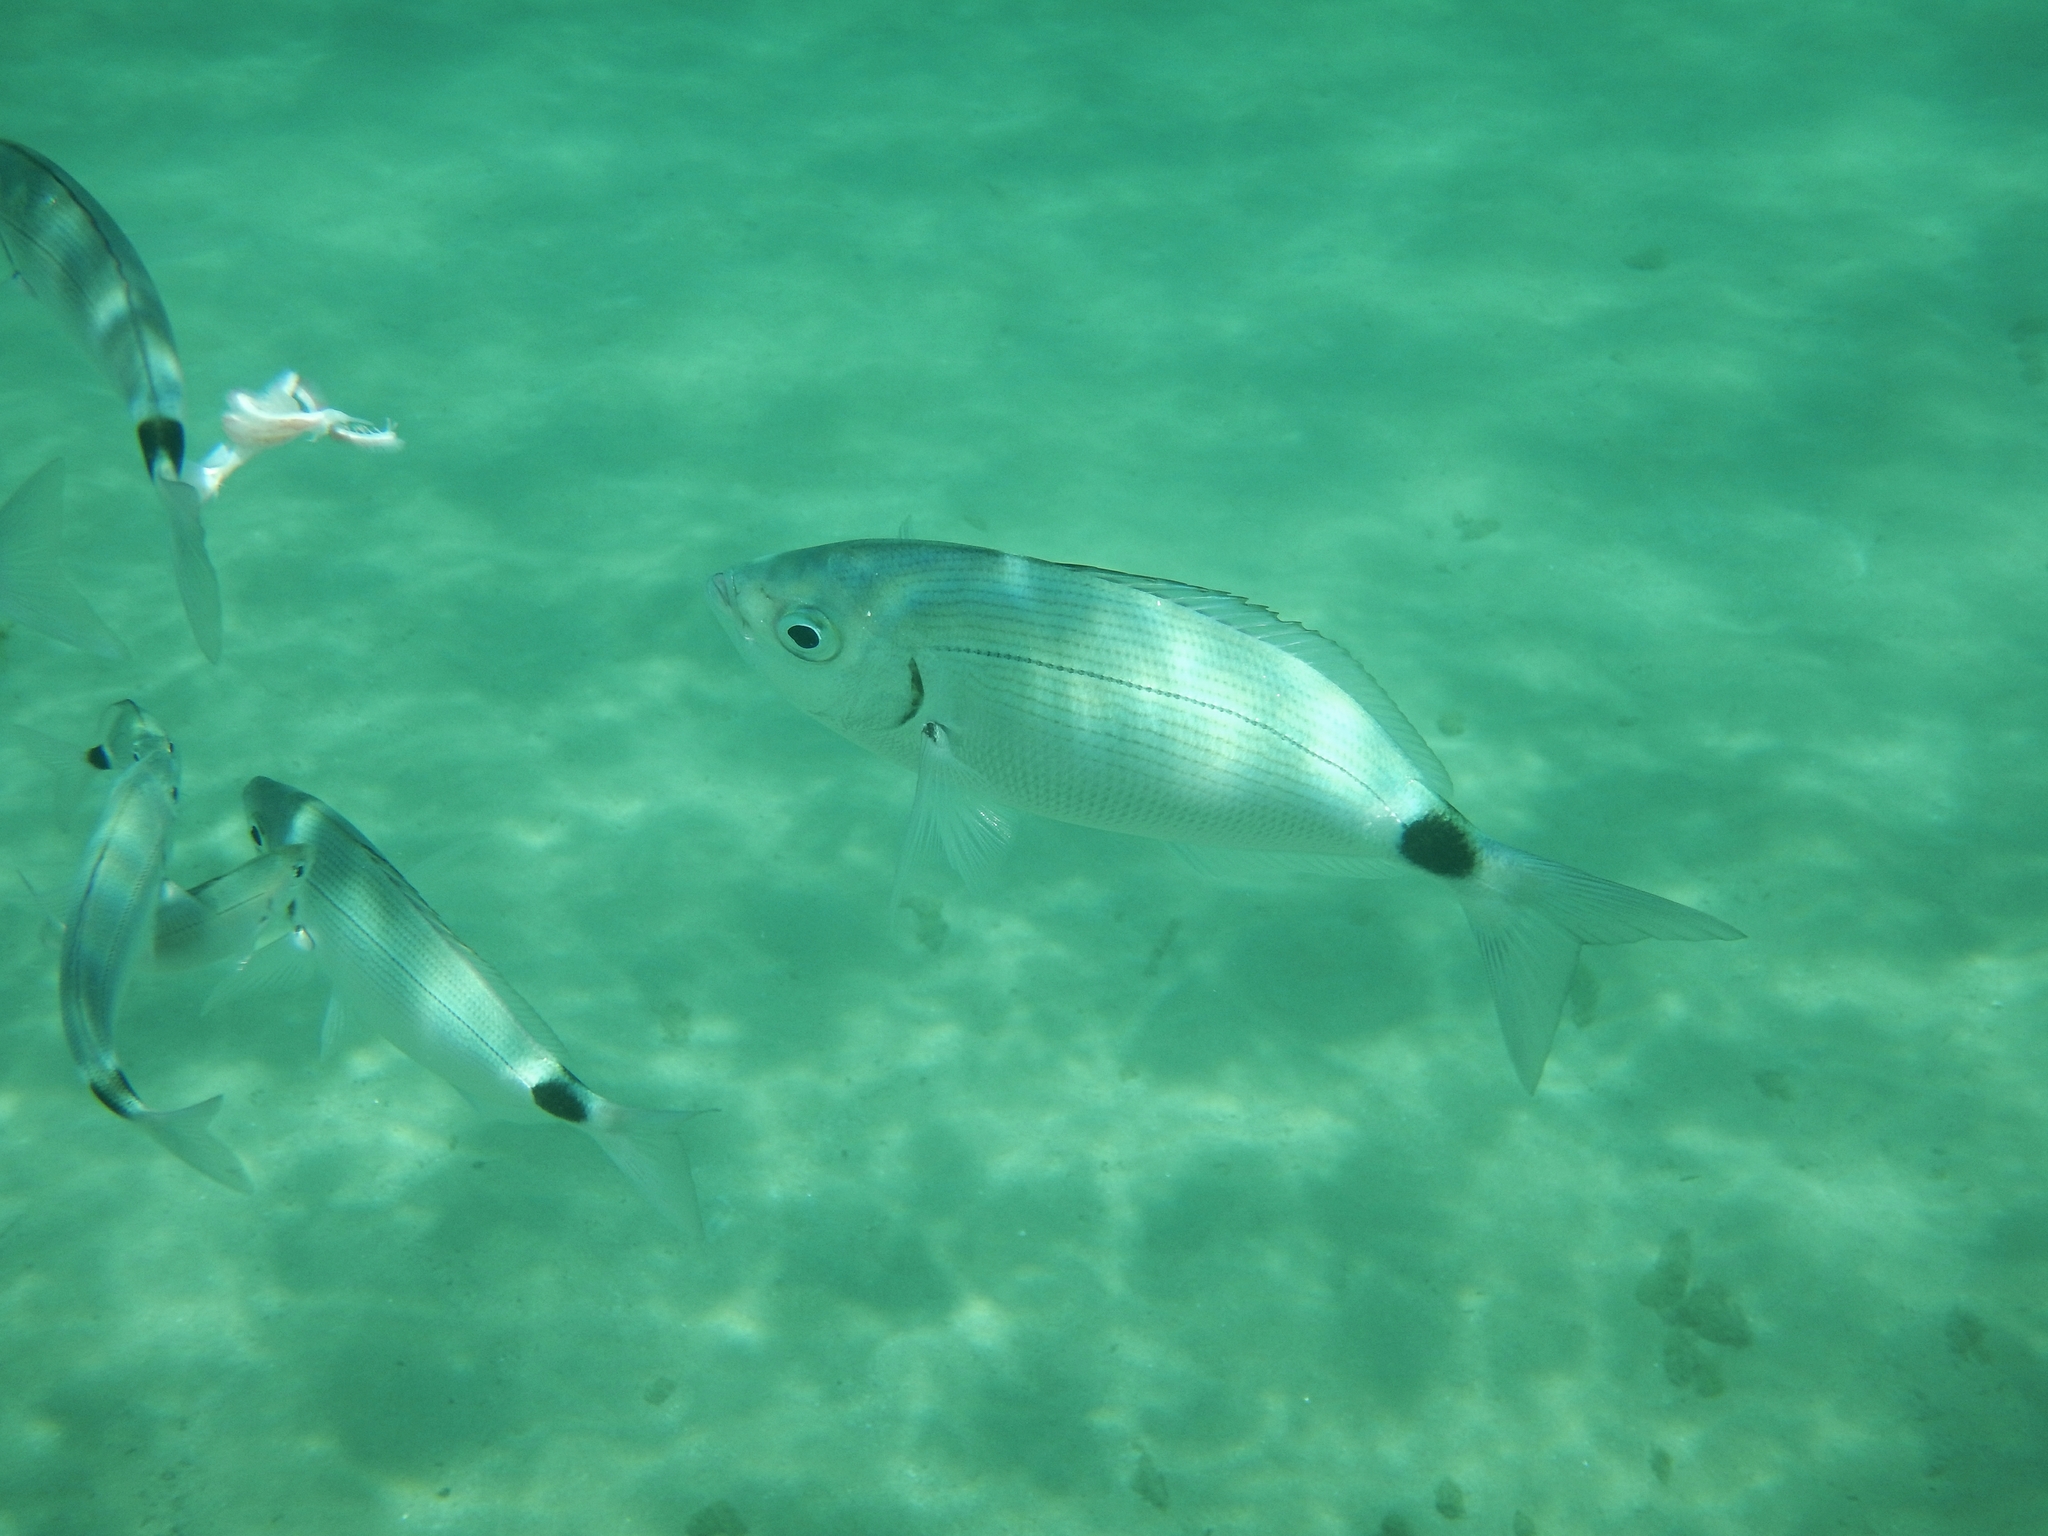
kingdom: Animalia
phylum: Chordata
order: Perciformes
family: Sparidae
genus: Oblada
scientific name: Oblada melanura
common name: Saddled seabream
